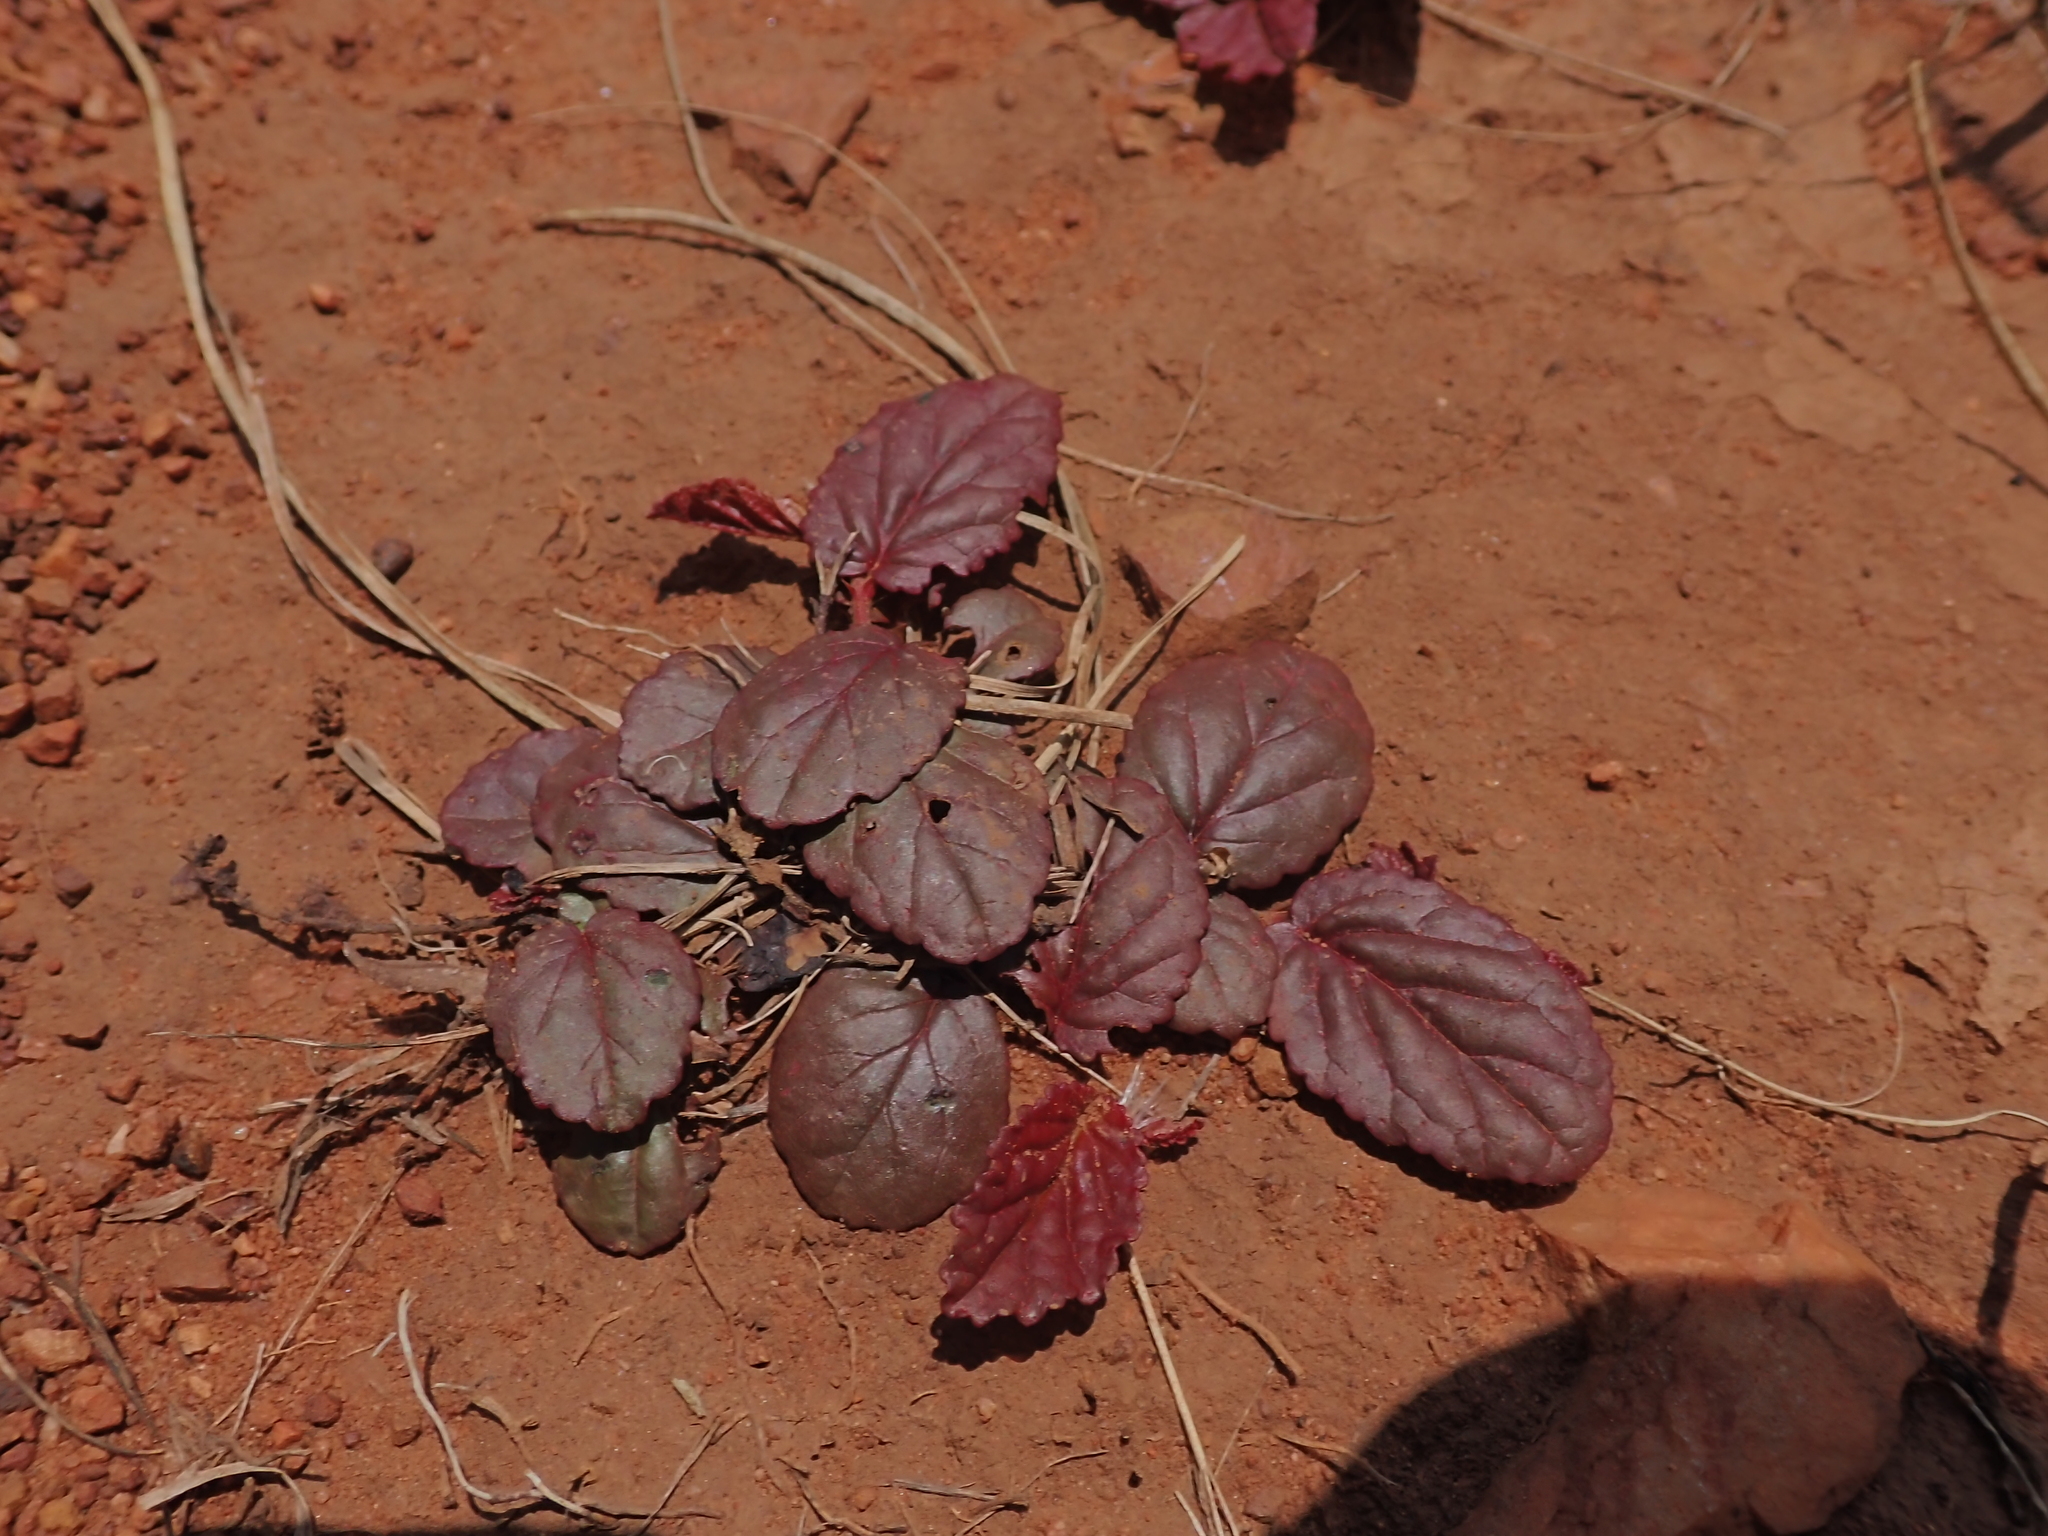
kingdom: Plantae
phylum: Tracheophyta
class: Magnoliopsida
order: Malvales
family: Malvaceae
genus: Hermannia
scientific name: Hermannia depressa
